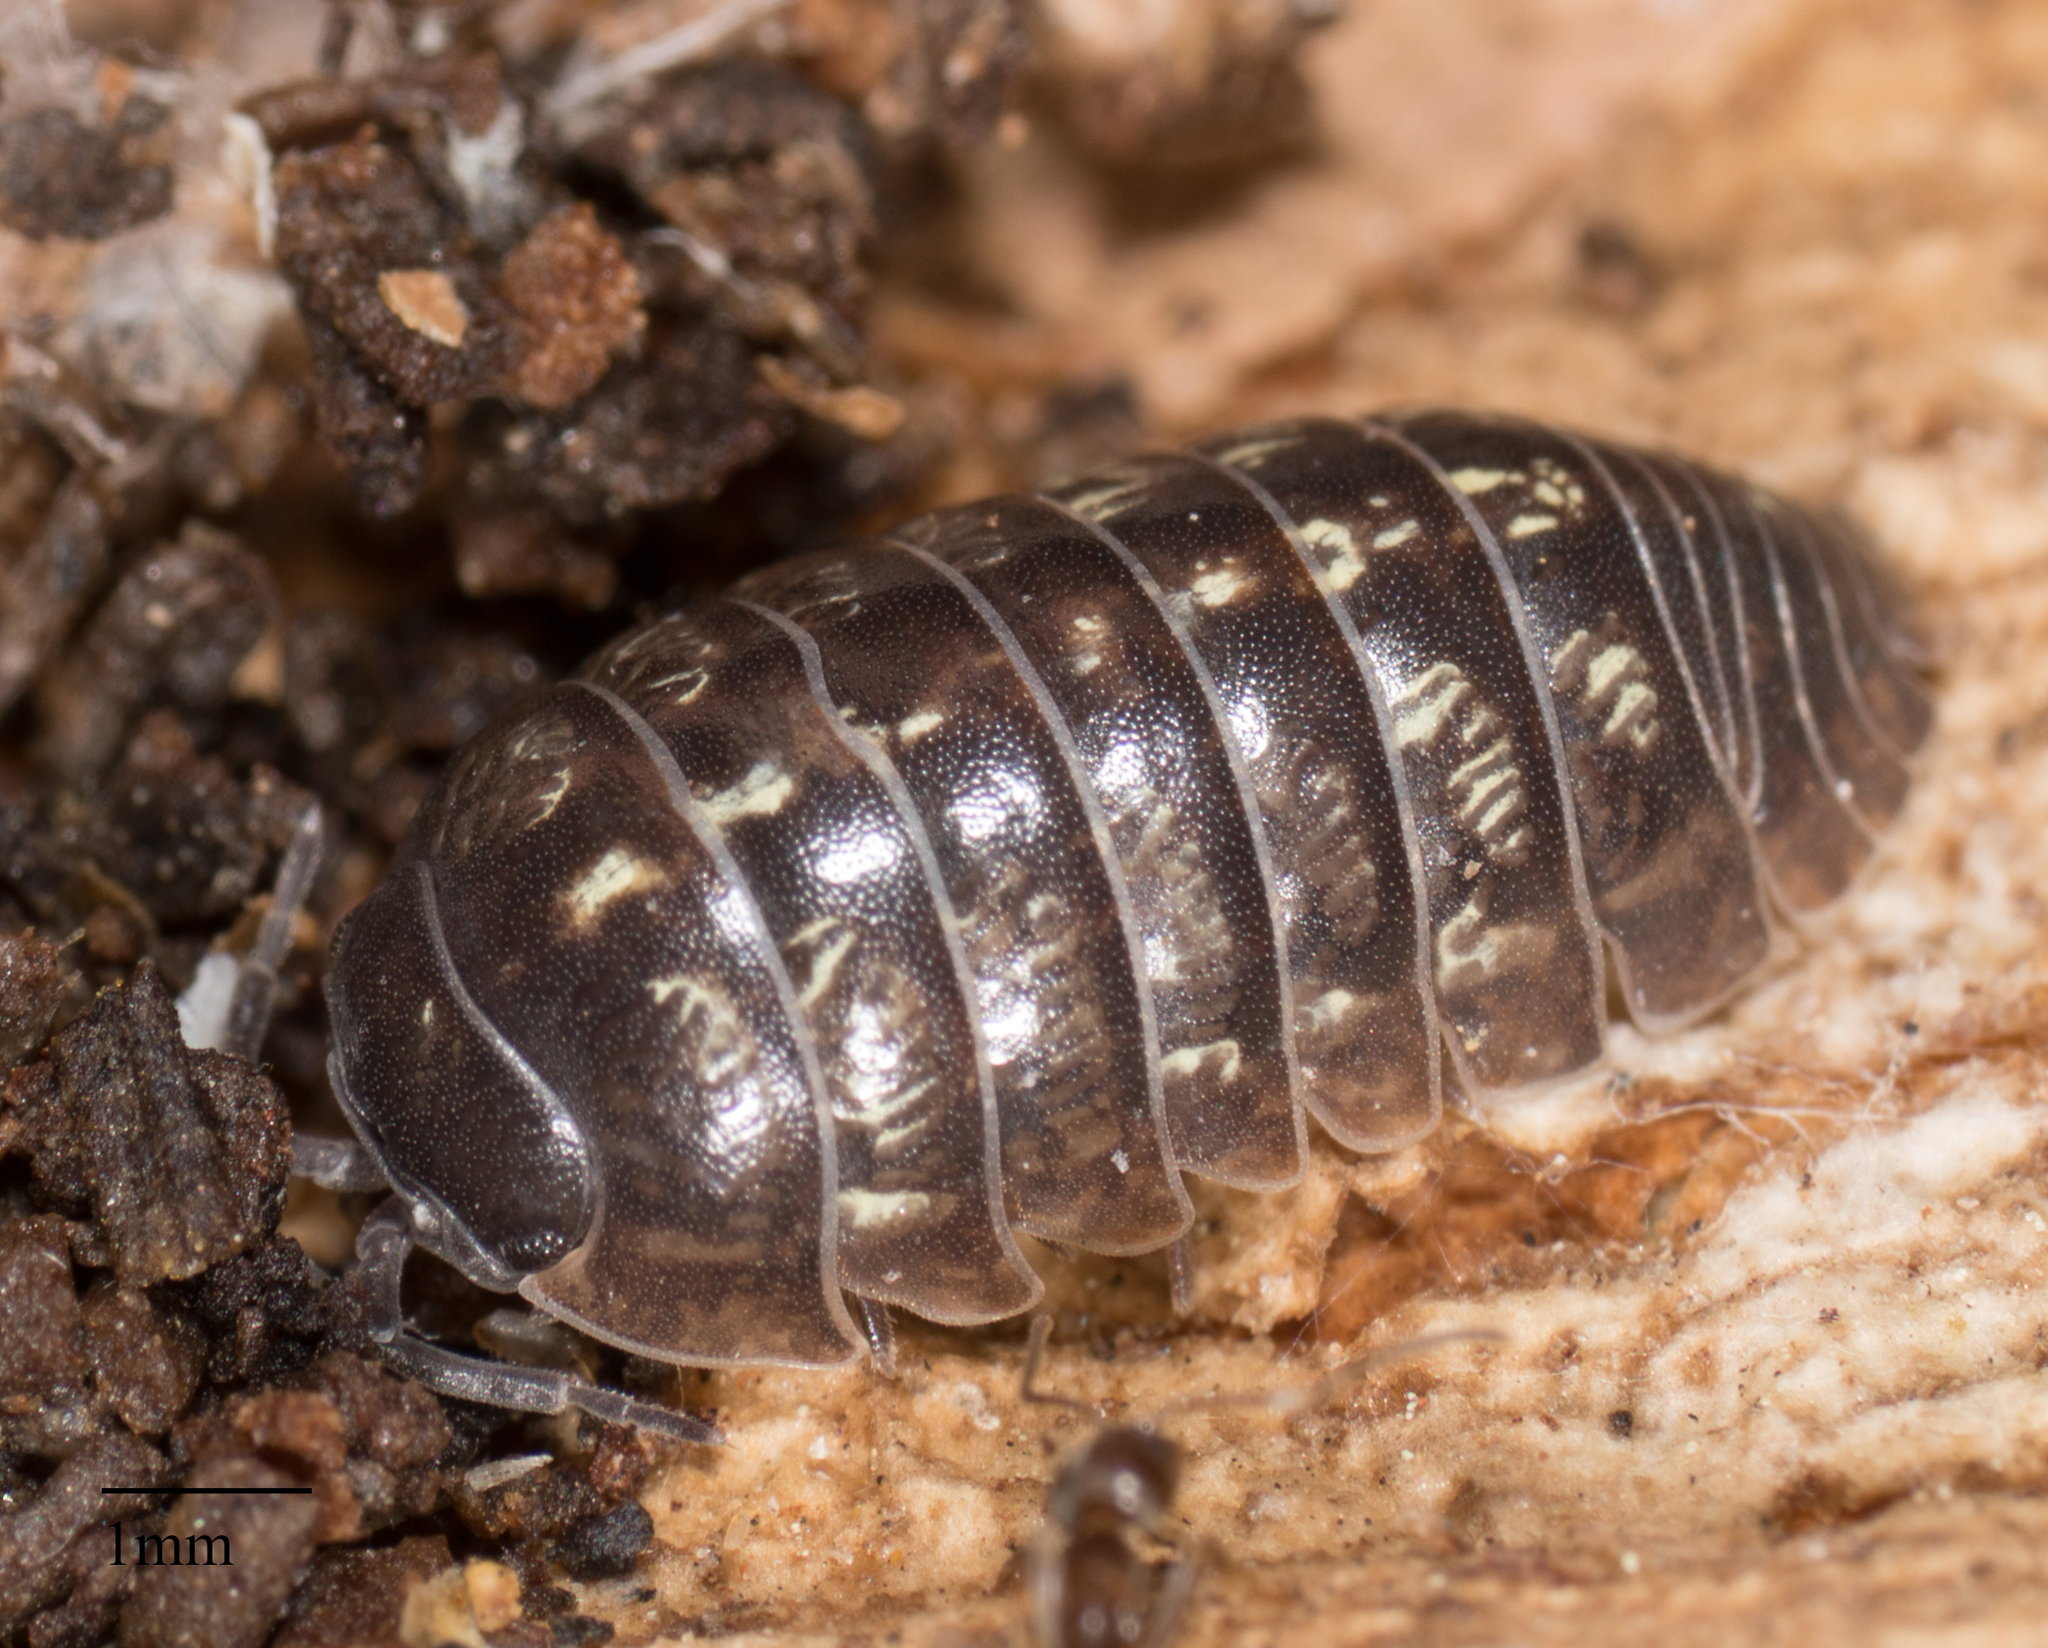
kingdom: Animalia
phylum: Arthropoda
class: Malacostraca
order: Isopoda
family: Armadillidiidae
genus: Armadillidium
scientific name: Armadillidium vulgare
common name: Common pill woodlouse
